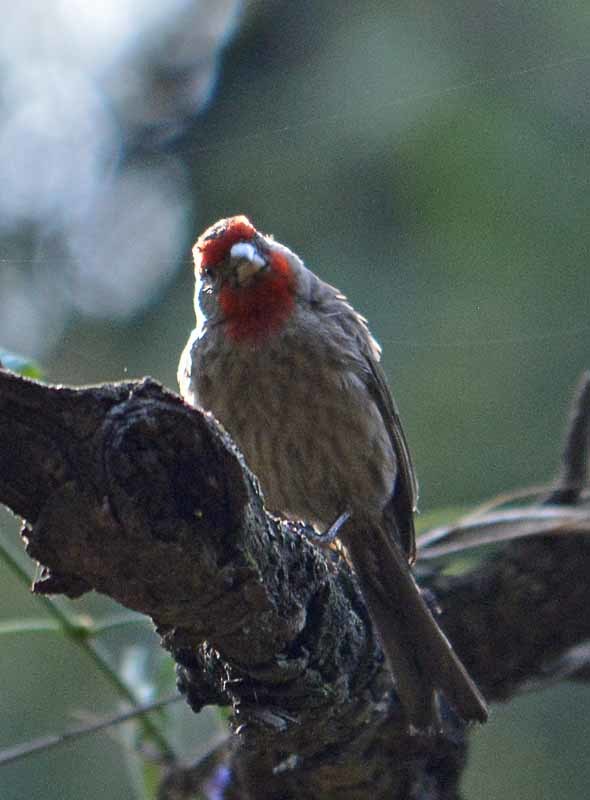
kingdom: Animalia
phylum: Chordata
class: Aves
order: Passeriformes
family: Fringillidae
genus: Haemorhous
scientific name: Haemorhous mexicanus
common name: House finch
